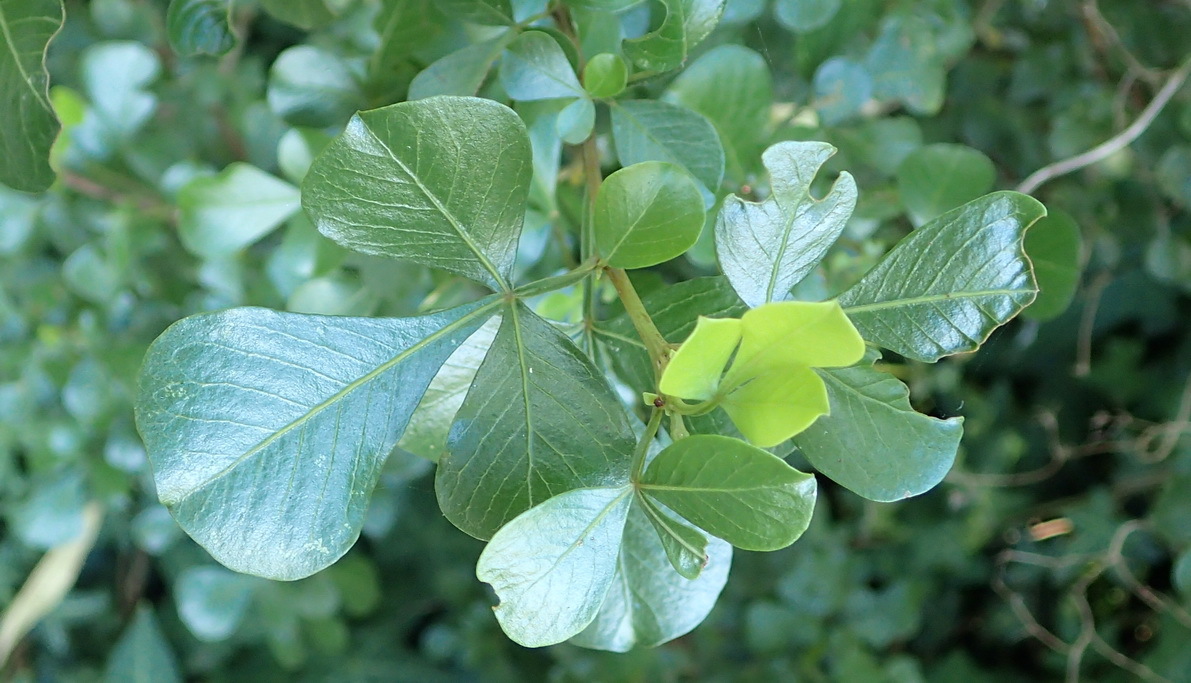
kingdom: Plantae
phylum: Tracheophyta
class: Magnoliopsida
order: Sapindales
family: Anacardiaceae
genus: Searsia
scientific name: Searsia glauca
